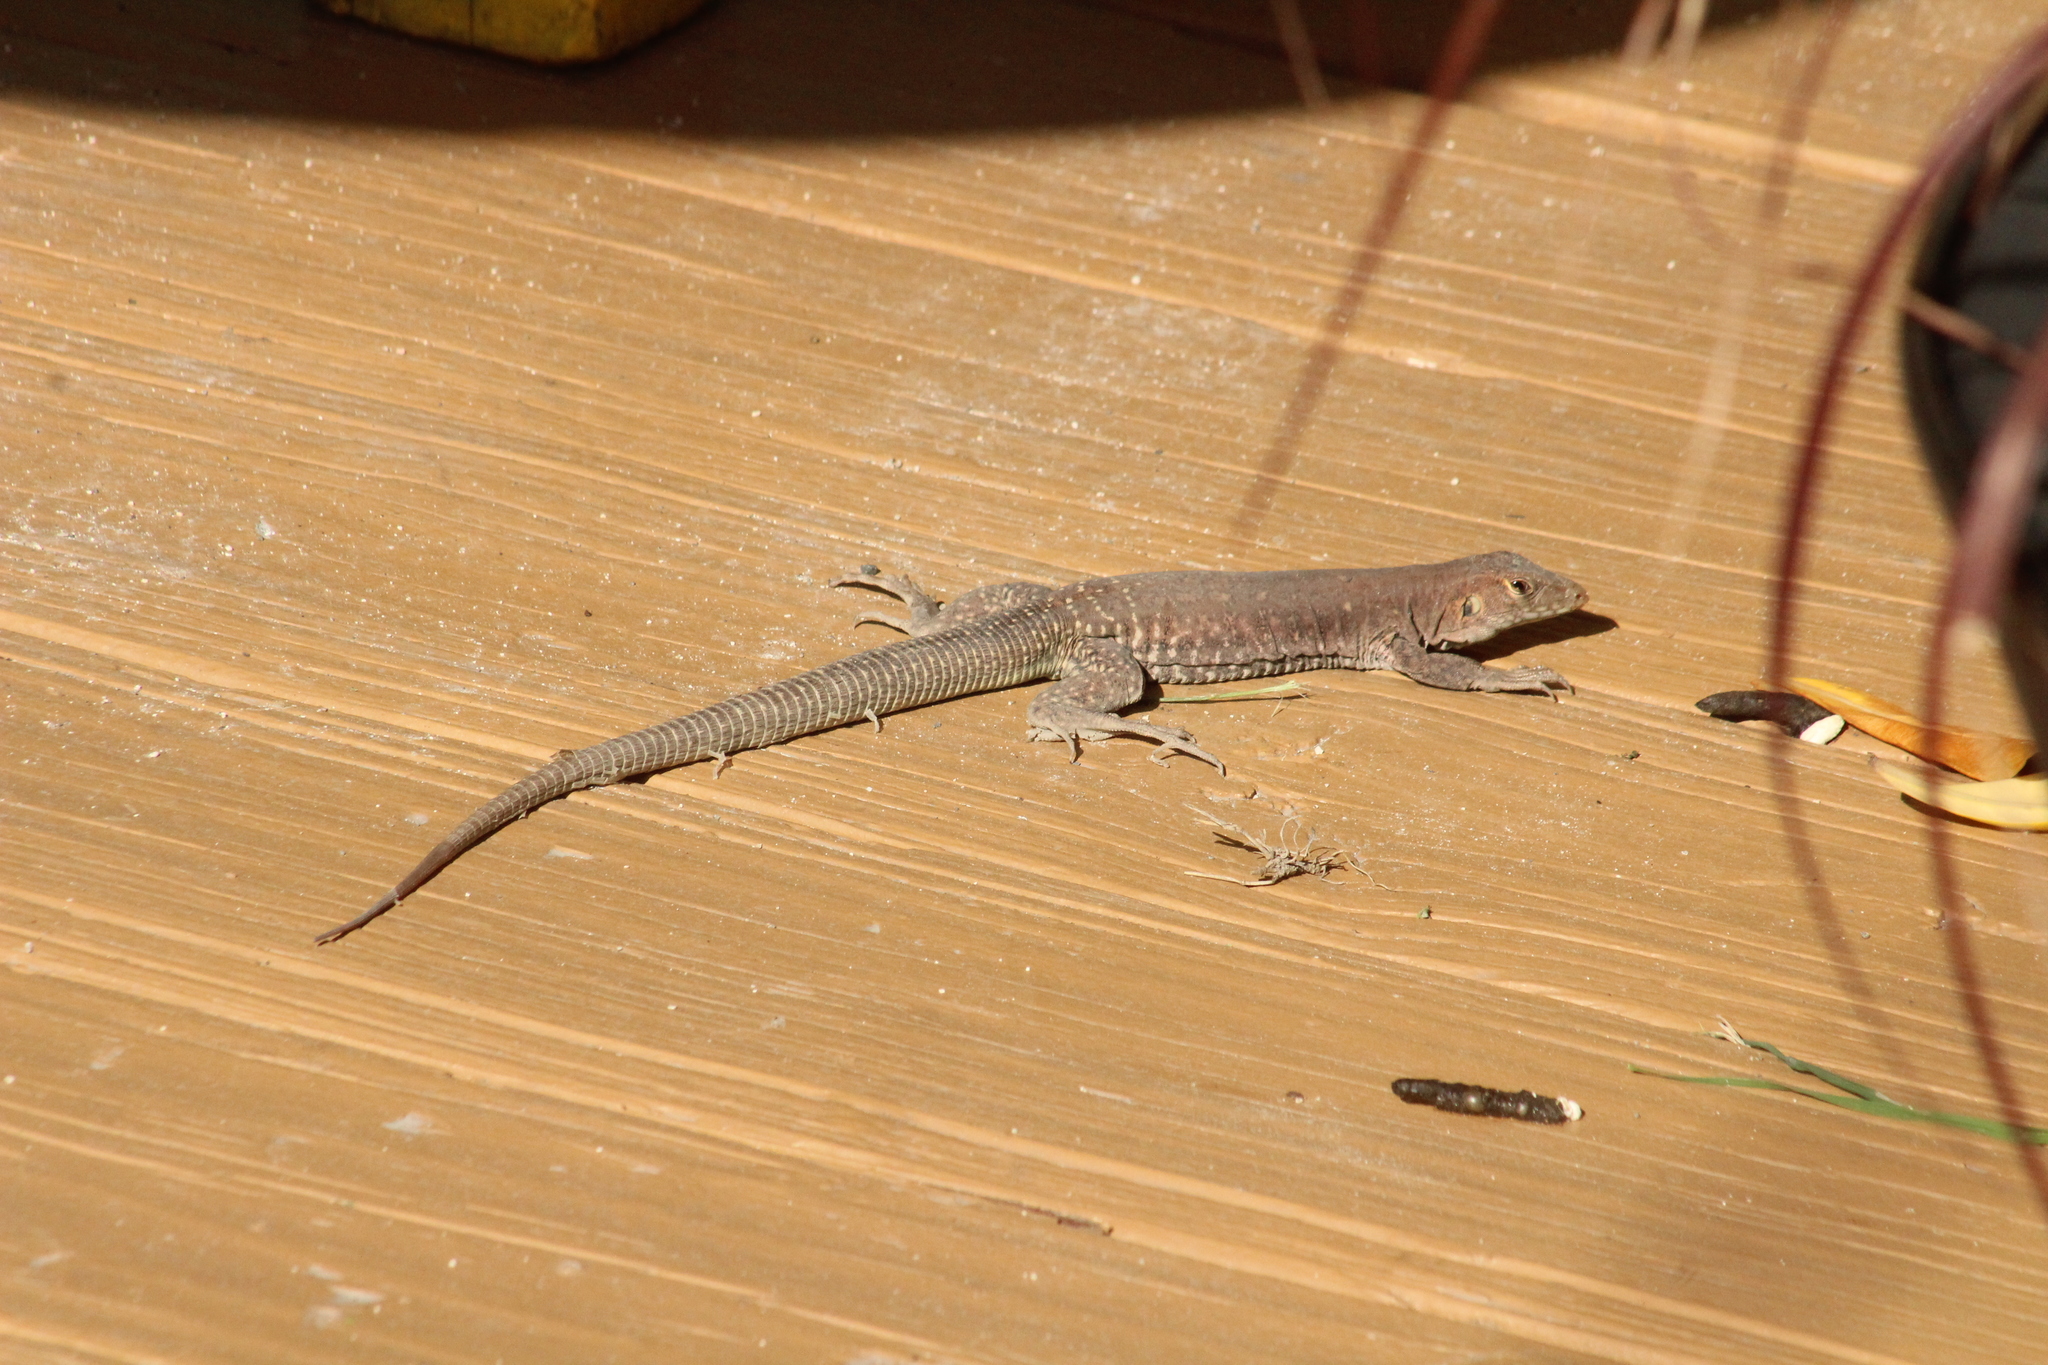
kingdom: Animalia
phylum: Chordata
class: Squamata
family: Teiidae
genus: Pholidoscelis
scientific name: Pholidoscelis plei
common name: Anguilla bank ameiva
